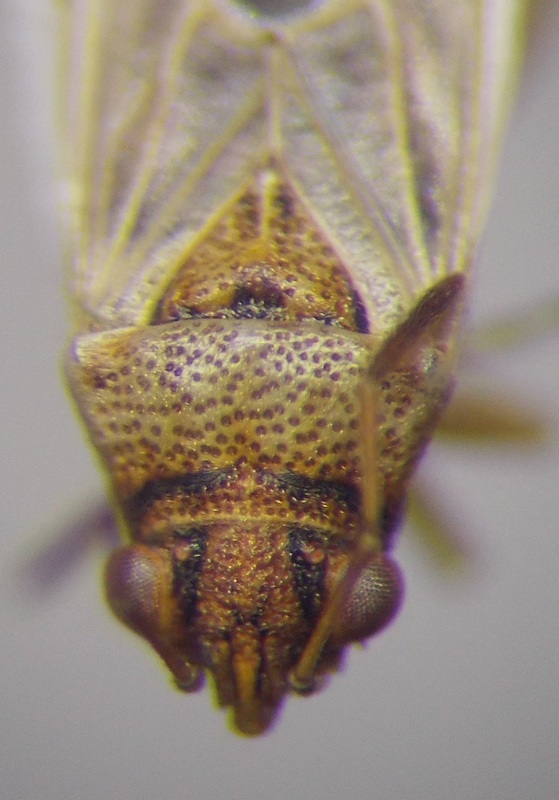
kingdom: Animalia
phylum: Arthropoda
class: Insecta
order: Hemiptera
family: Lygaeidae
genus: Nysius
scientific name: Nysius cymoides
